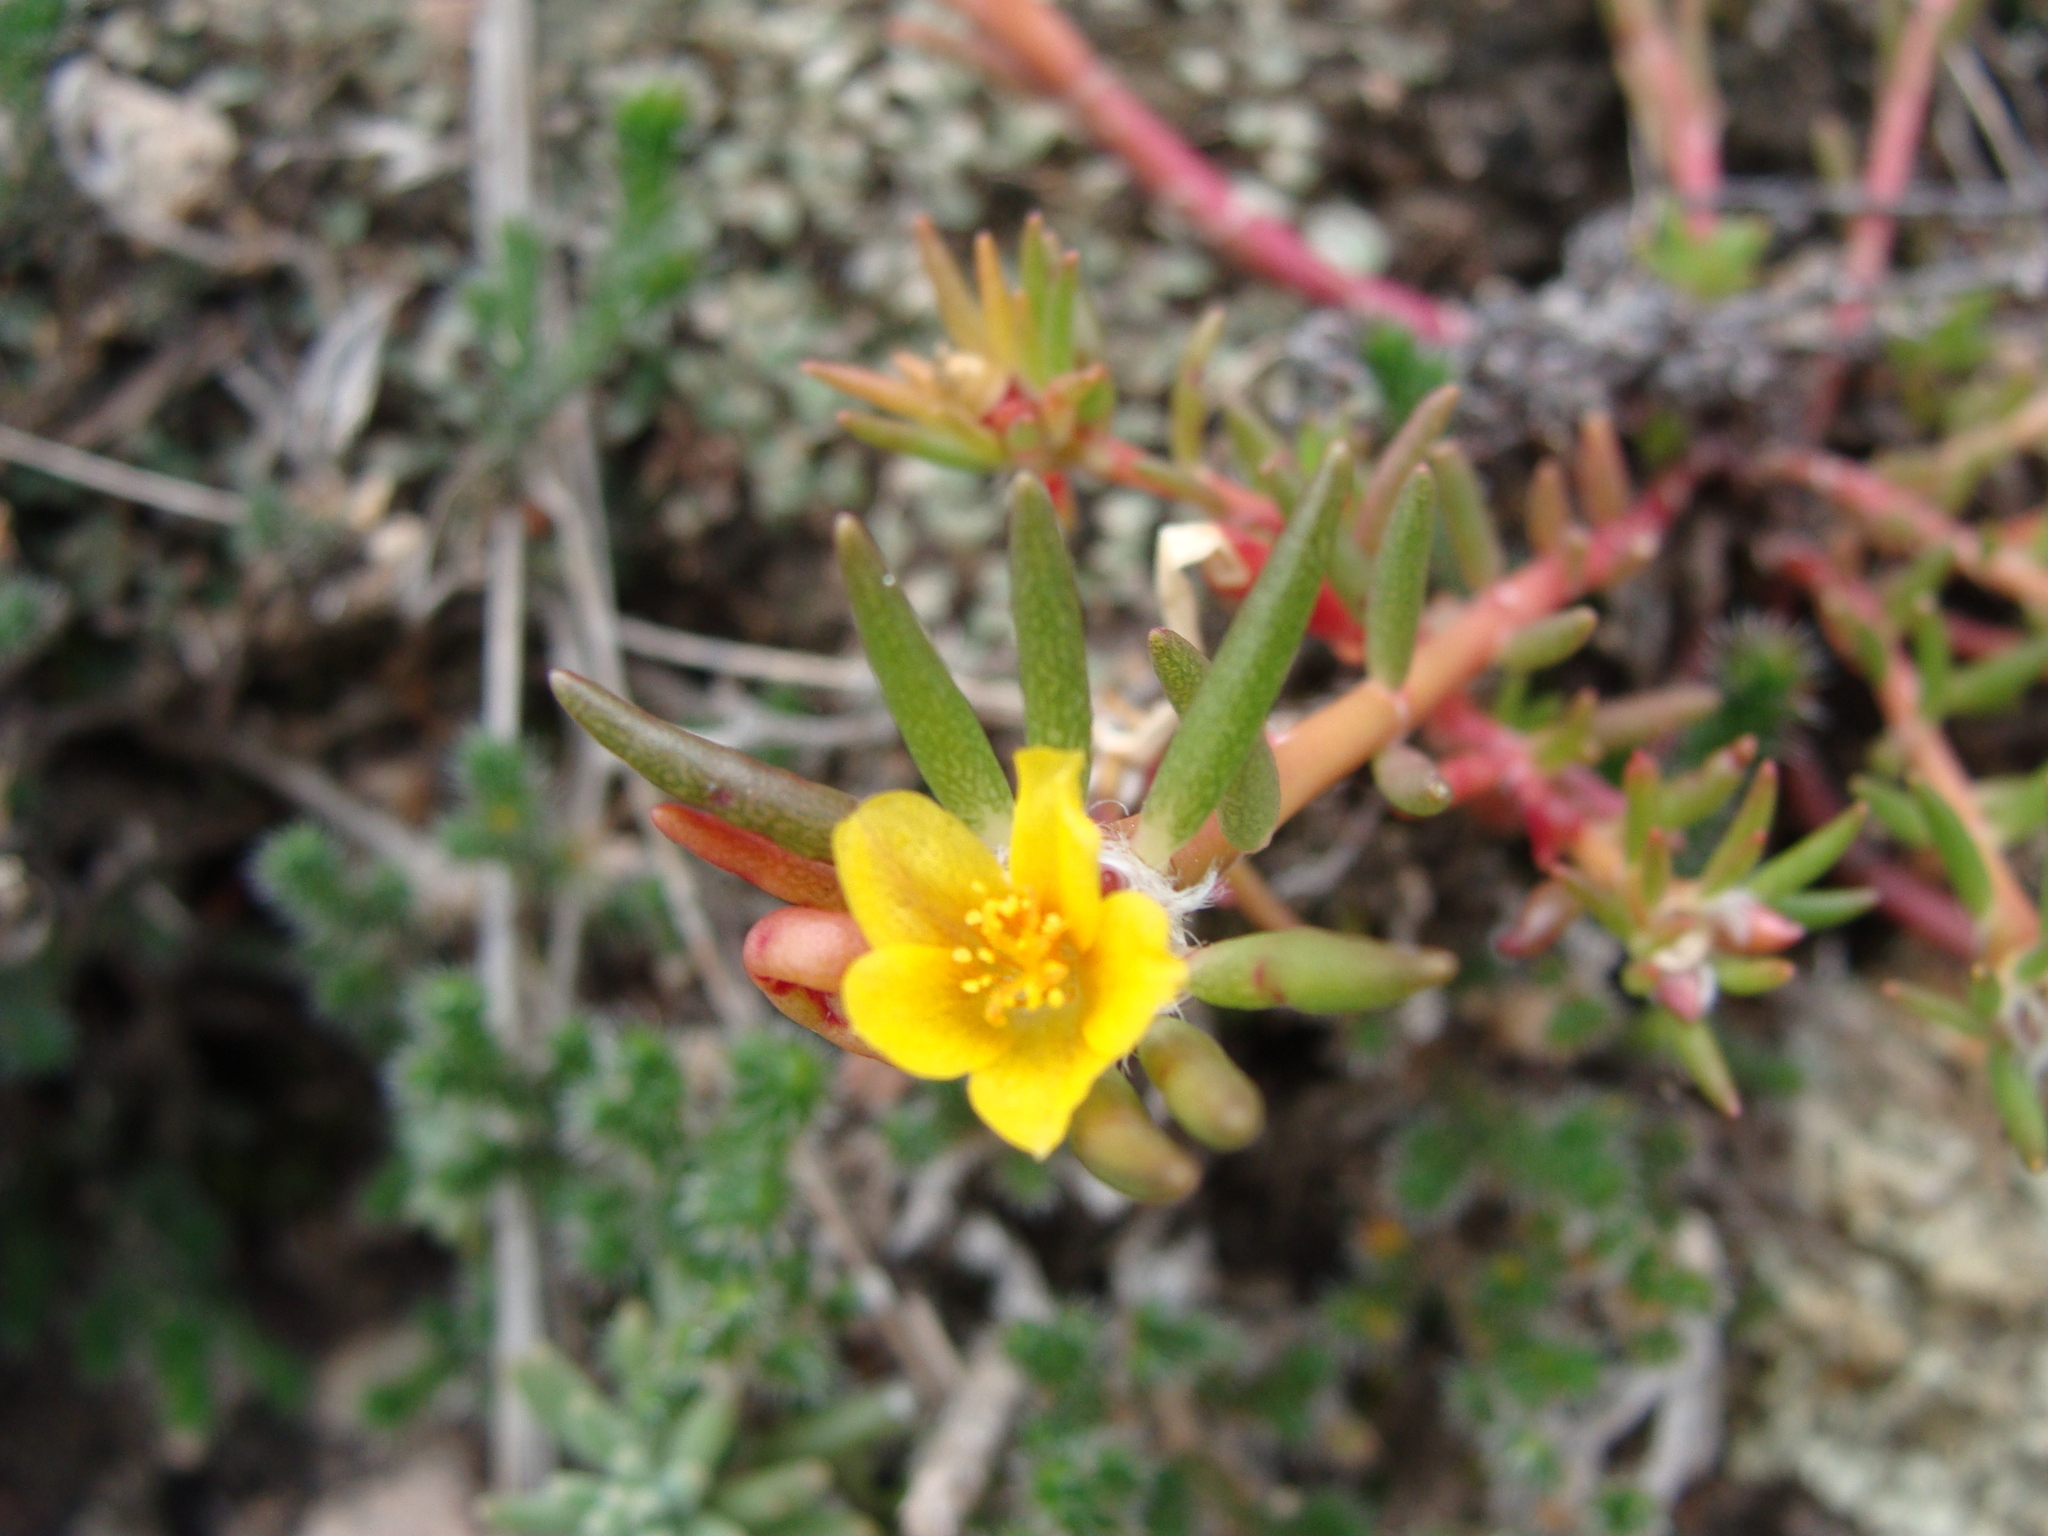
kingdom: Plantae
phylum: Tracheophyta
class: Magnoliopsida
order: Caryophyllales
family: Portulacaceae
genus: Portulaca
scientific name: Portulaca mexicana
